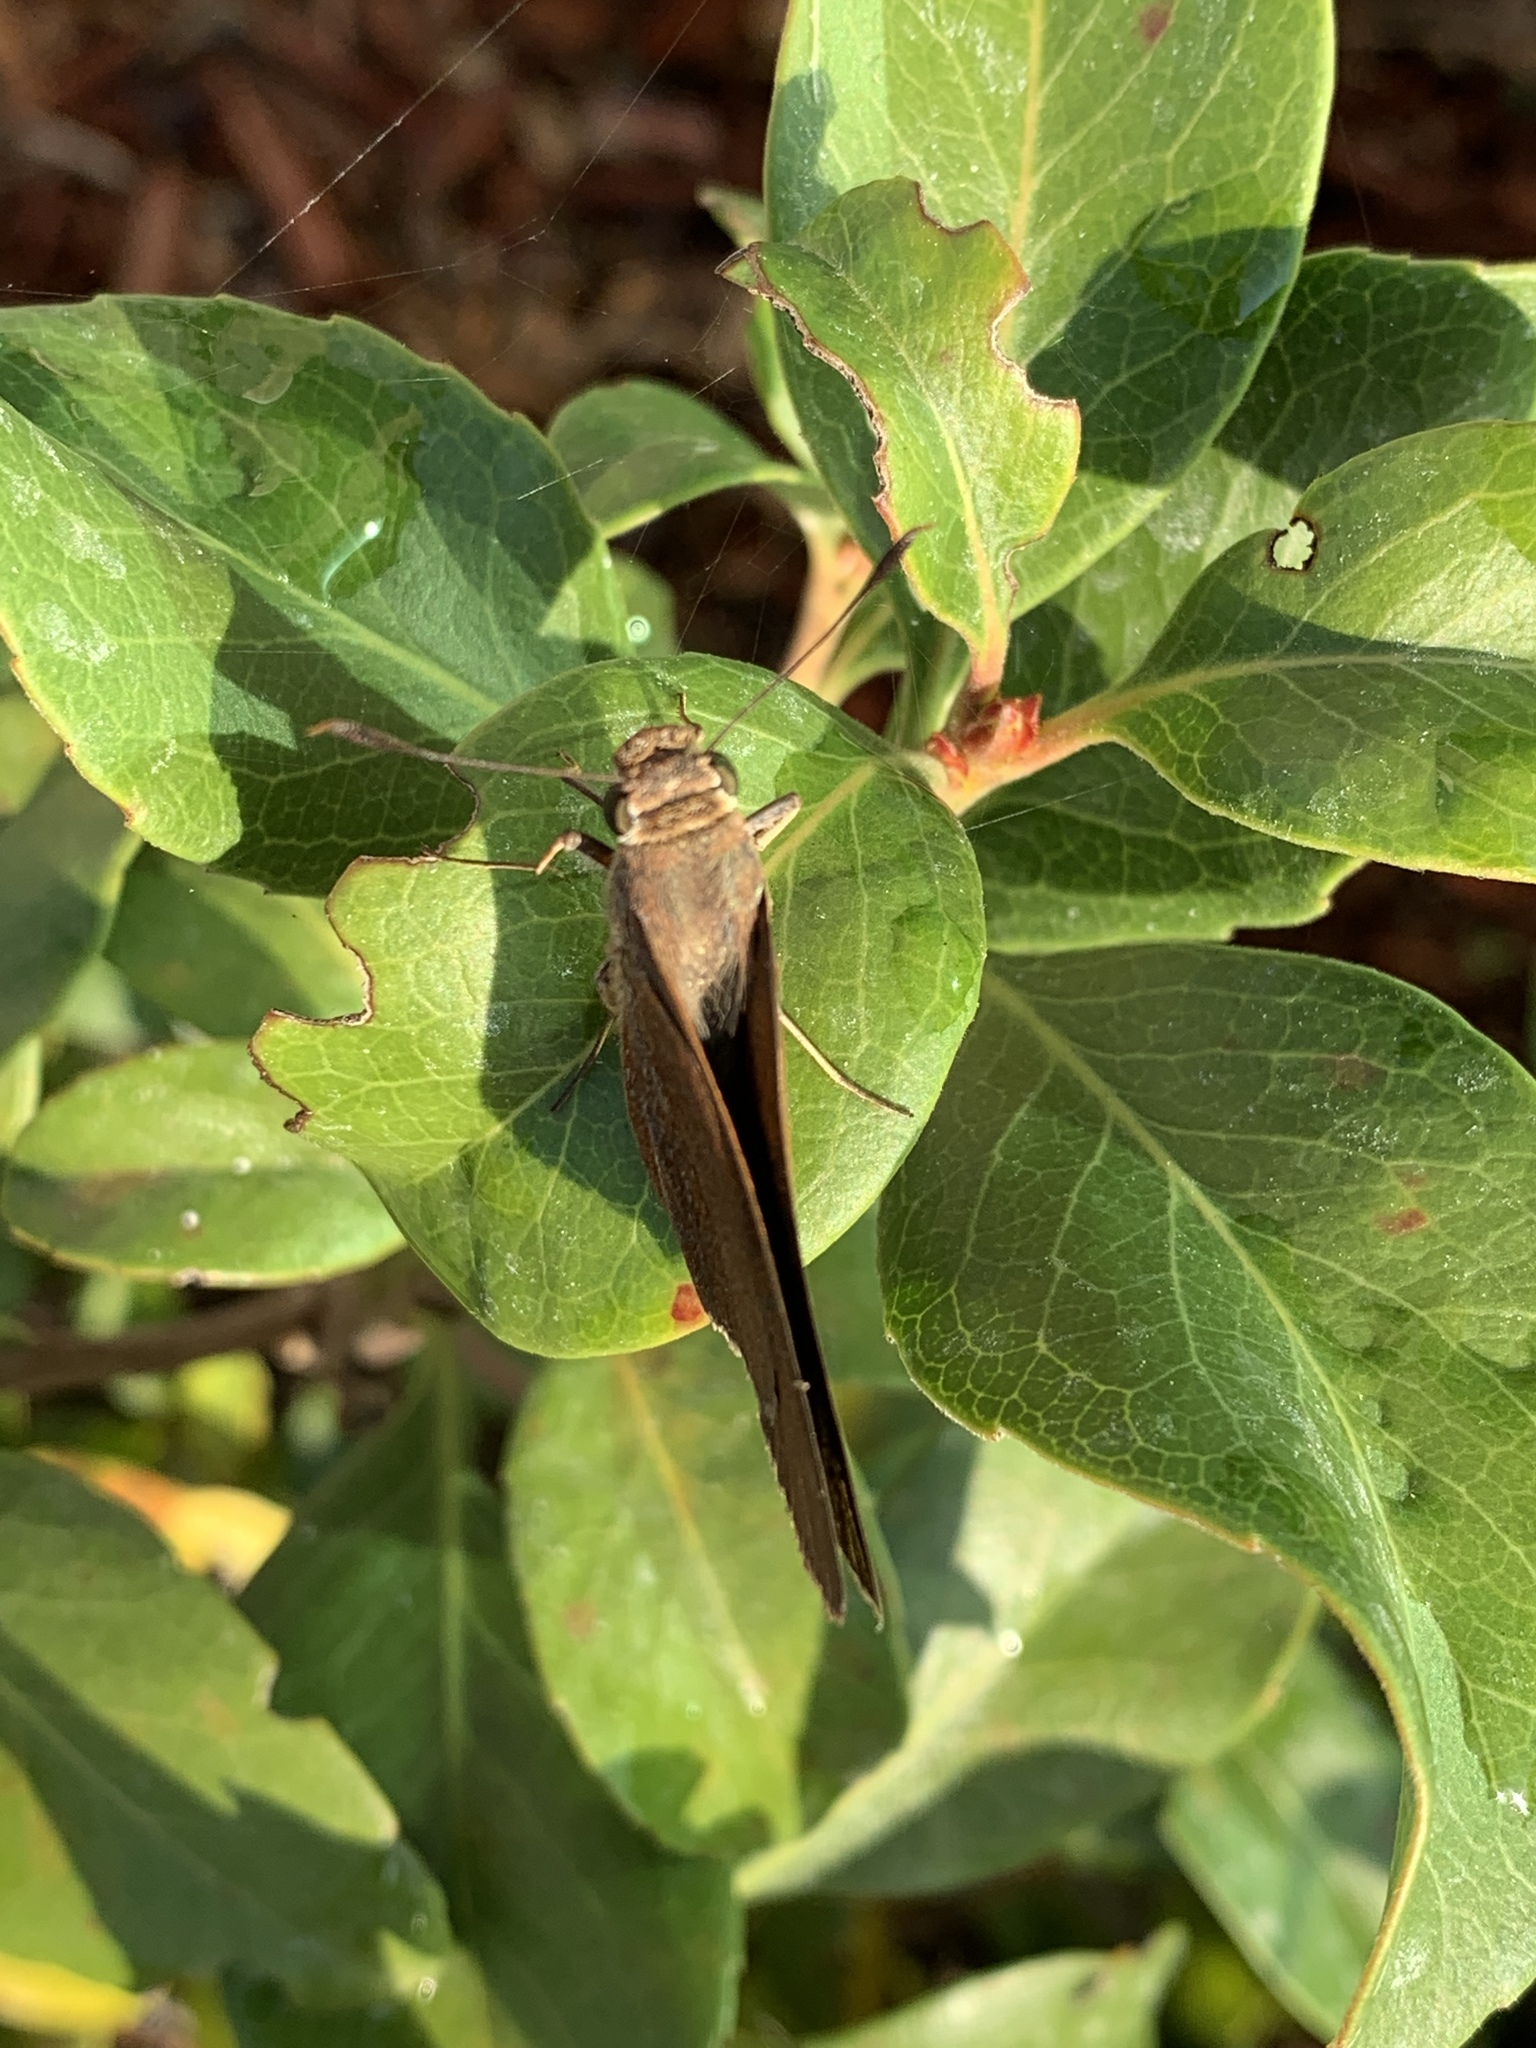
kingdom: Animalia
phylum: Arthropoda
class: Insecta
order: Lepidoptera
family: Hesperiidae
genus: Asbolis
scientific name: Asbolis capucinus
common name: Monk skipper
